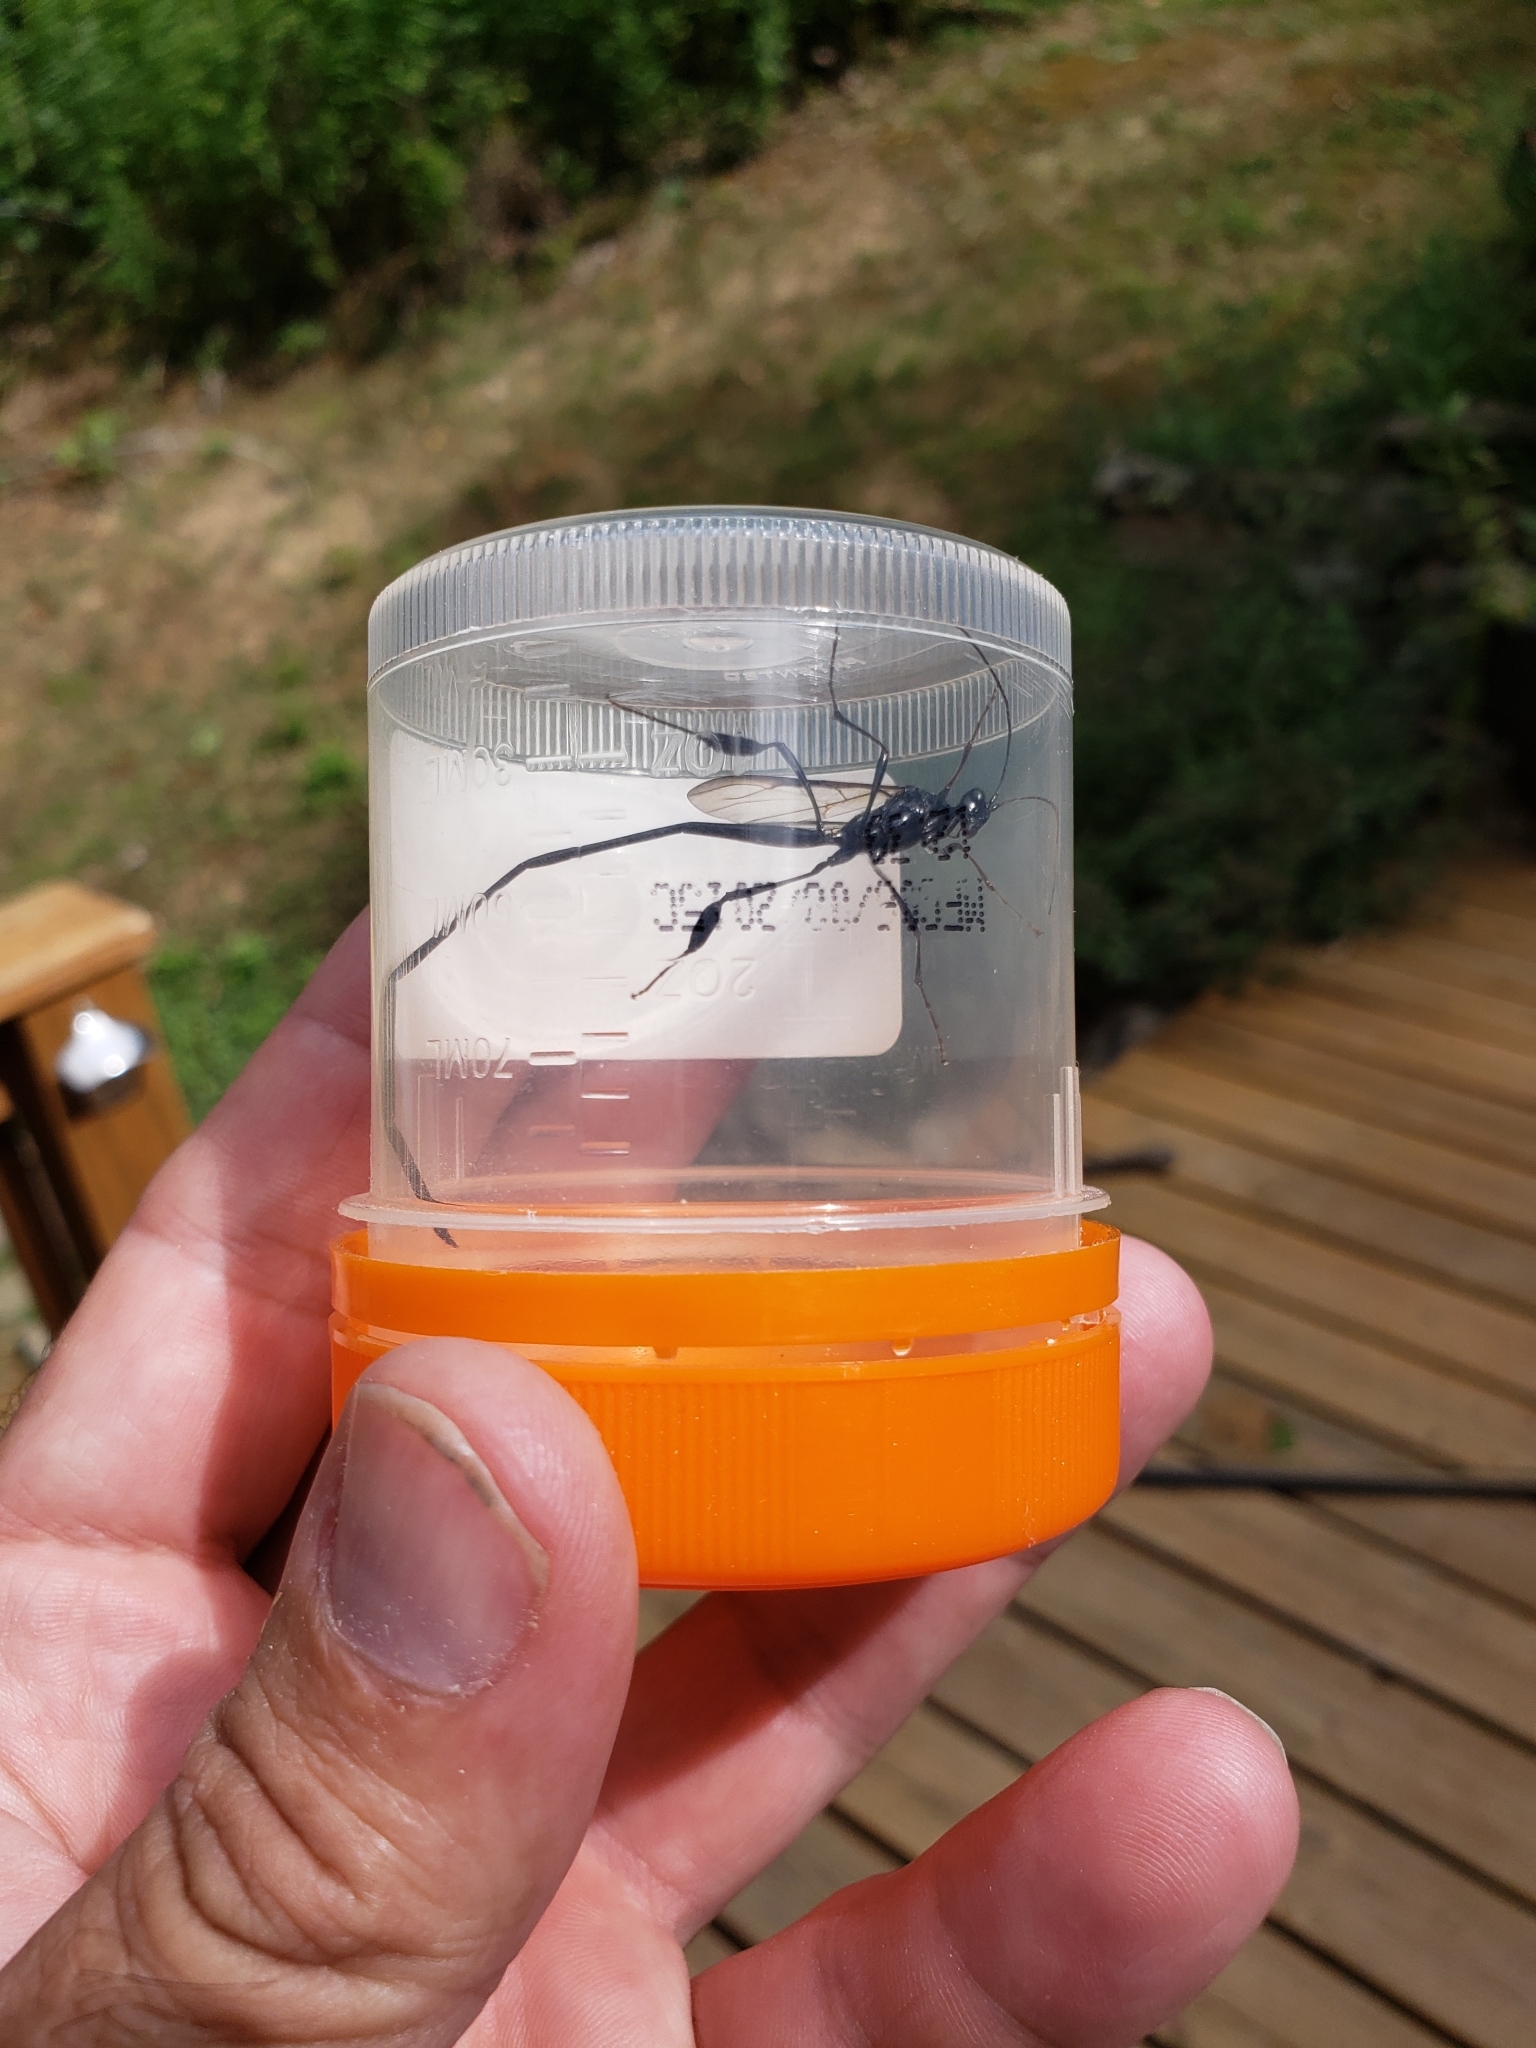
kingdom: Animalia
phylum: Arthropoda
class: Insecta
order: Hymenoptera
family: Pelecinidae
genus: Pelecinus
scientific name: Pelecinus polyturator
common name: American pelecinid wasp
